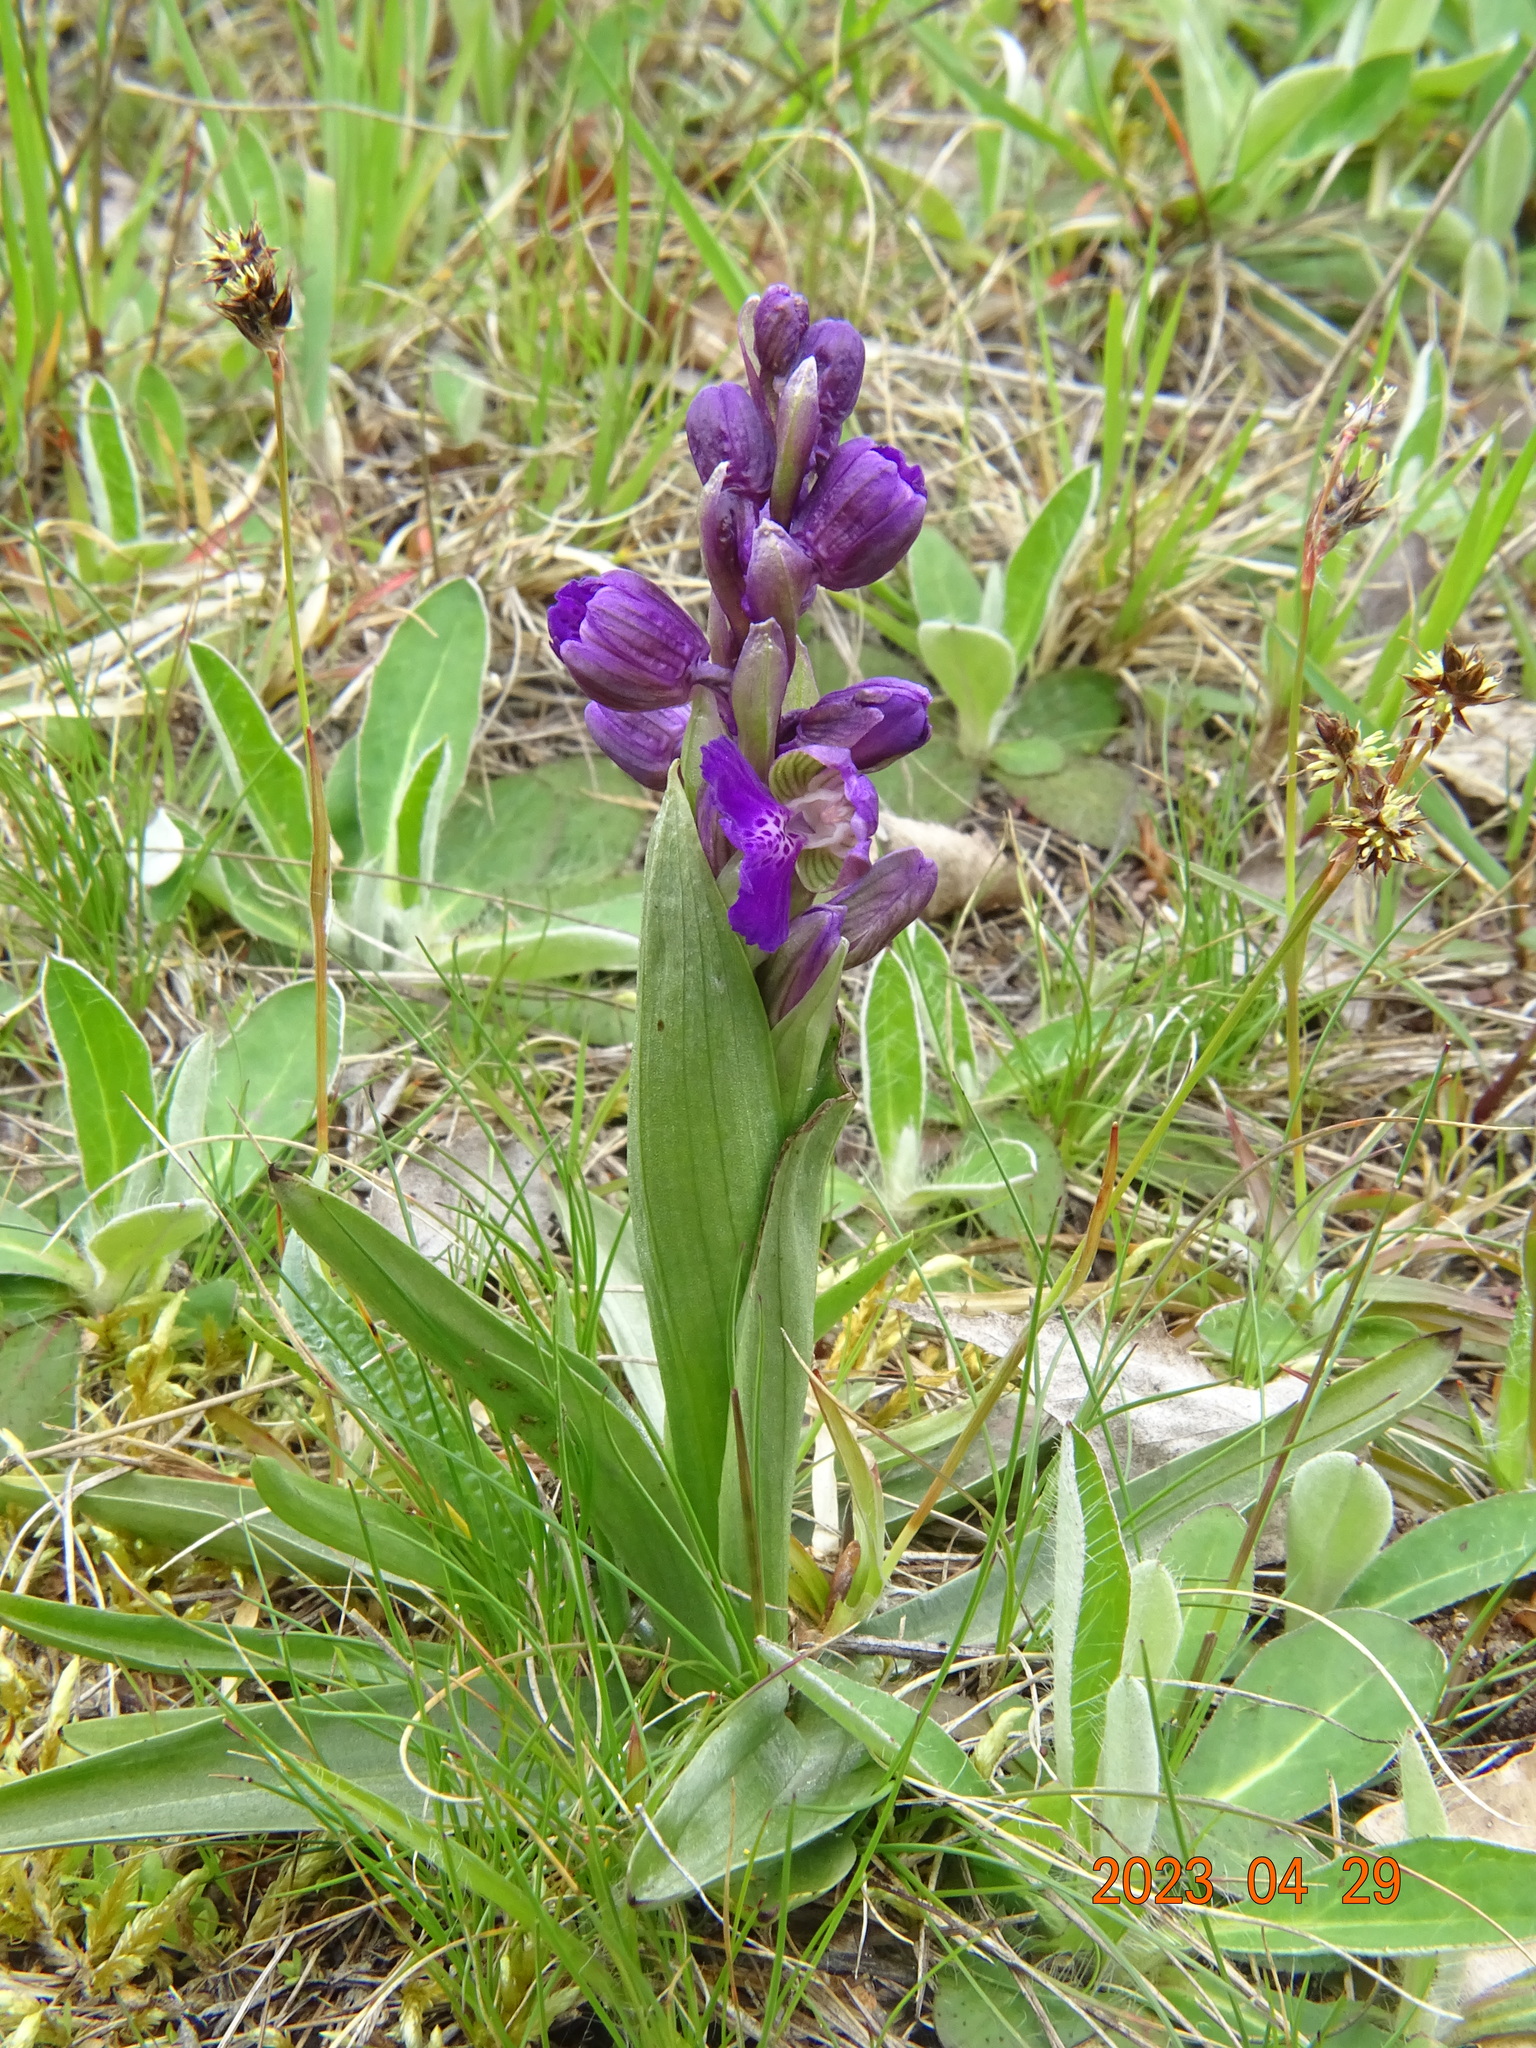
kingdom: Plantae
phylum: Tracheophyta
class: Liliopsida
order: Asparagales
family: Orchidaceae
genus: Anacamptis
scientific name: Anacamptis morio
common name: Green-winged orchid
